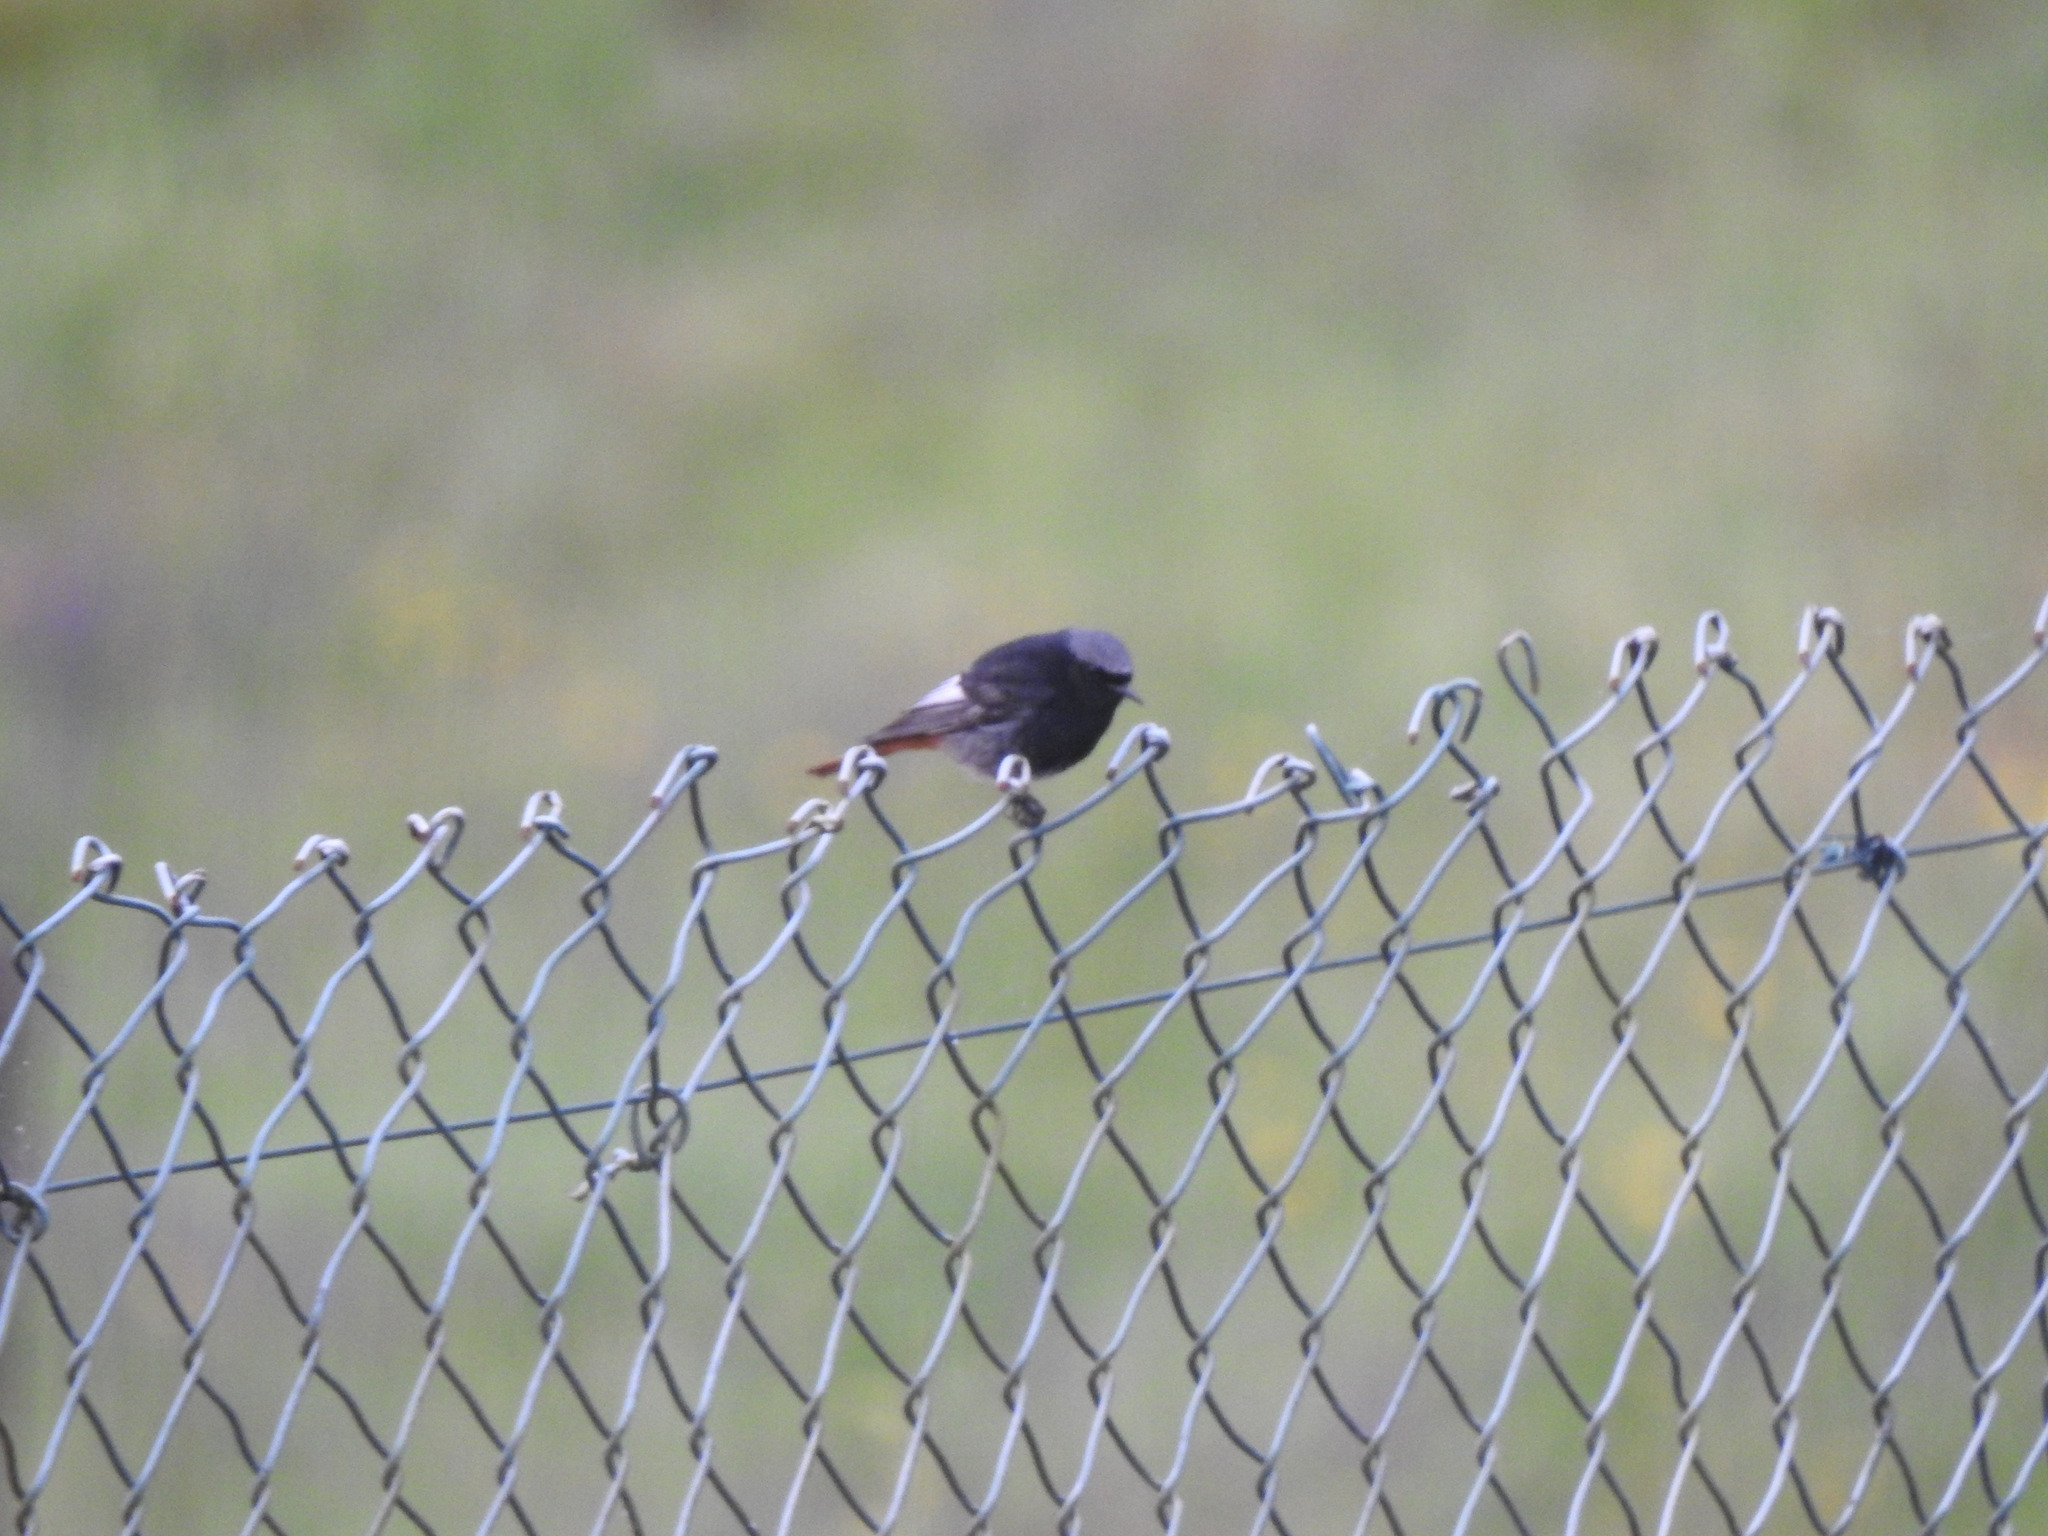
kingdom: Animalia
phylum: Chordata
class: Aves
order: Passeriformes
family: Muscicapidae
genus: Phoenicurus
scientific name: Phoenicurus ochruros
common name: Black redstart
